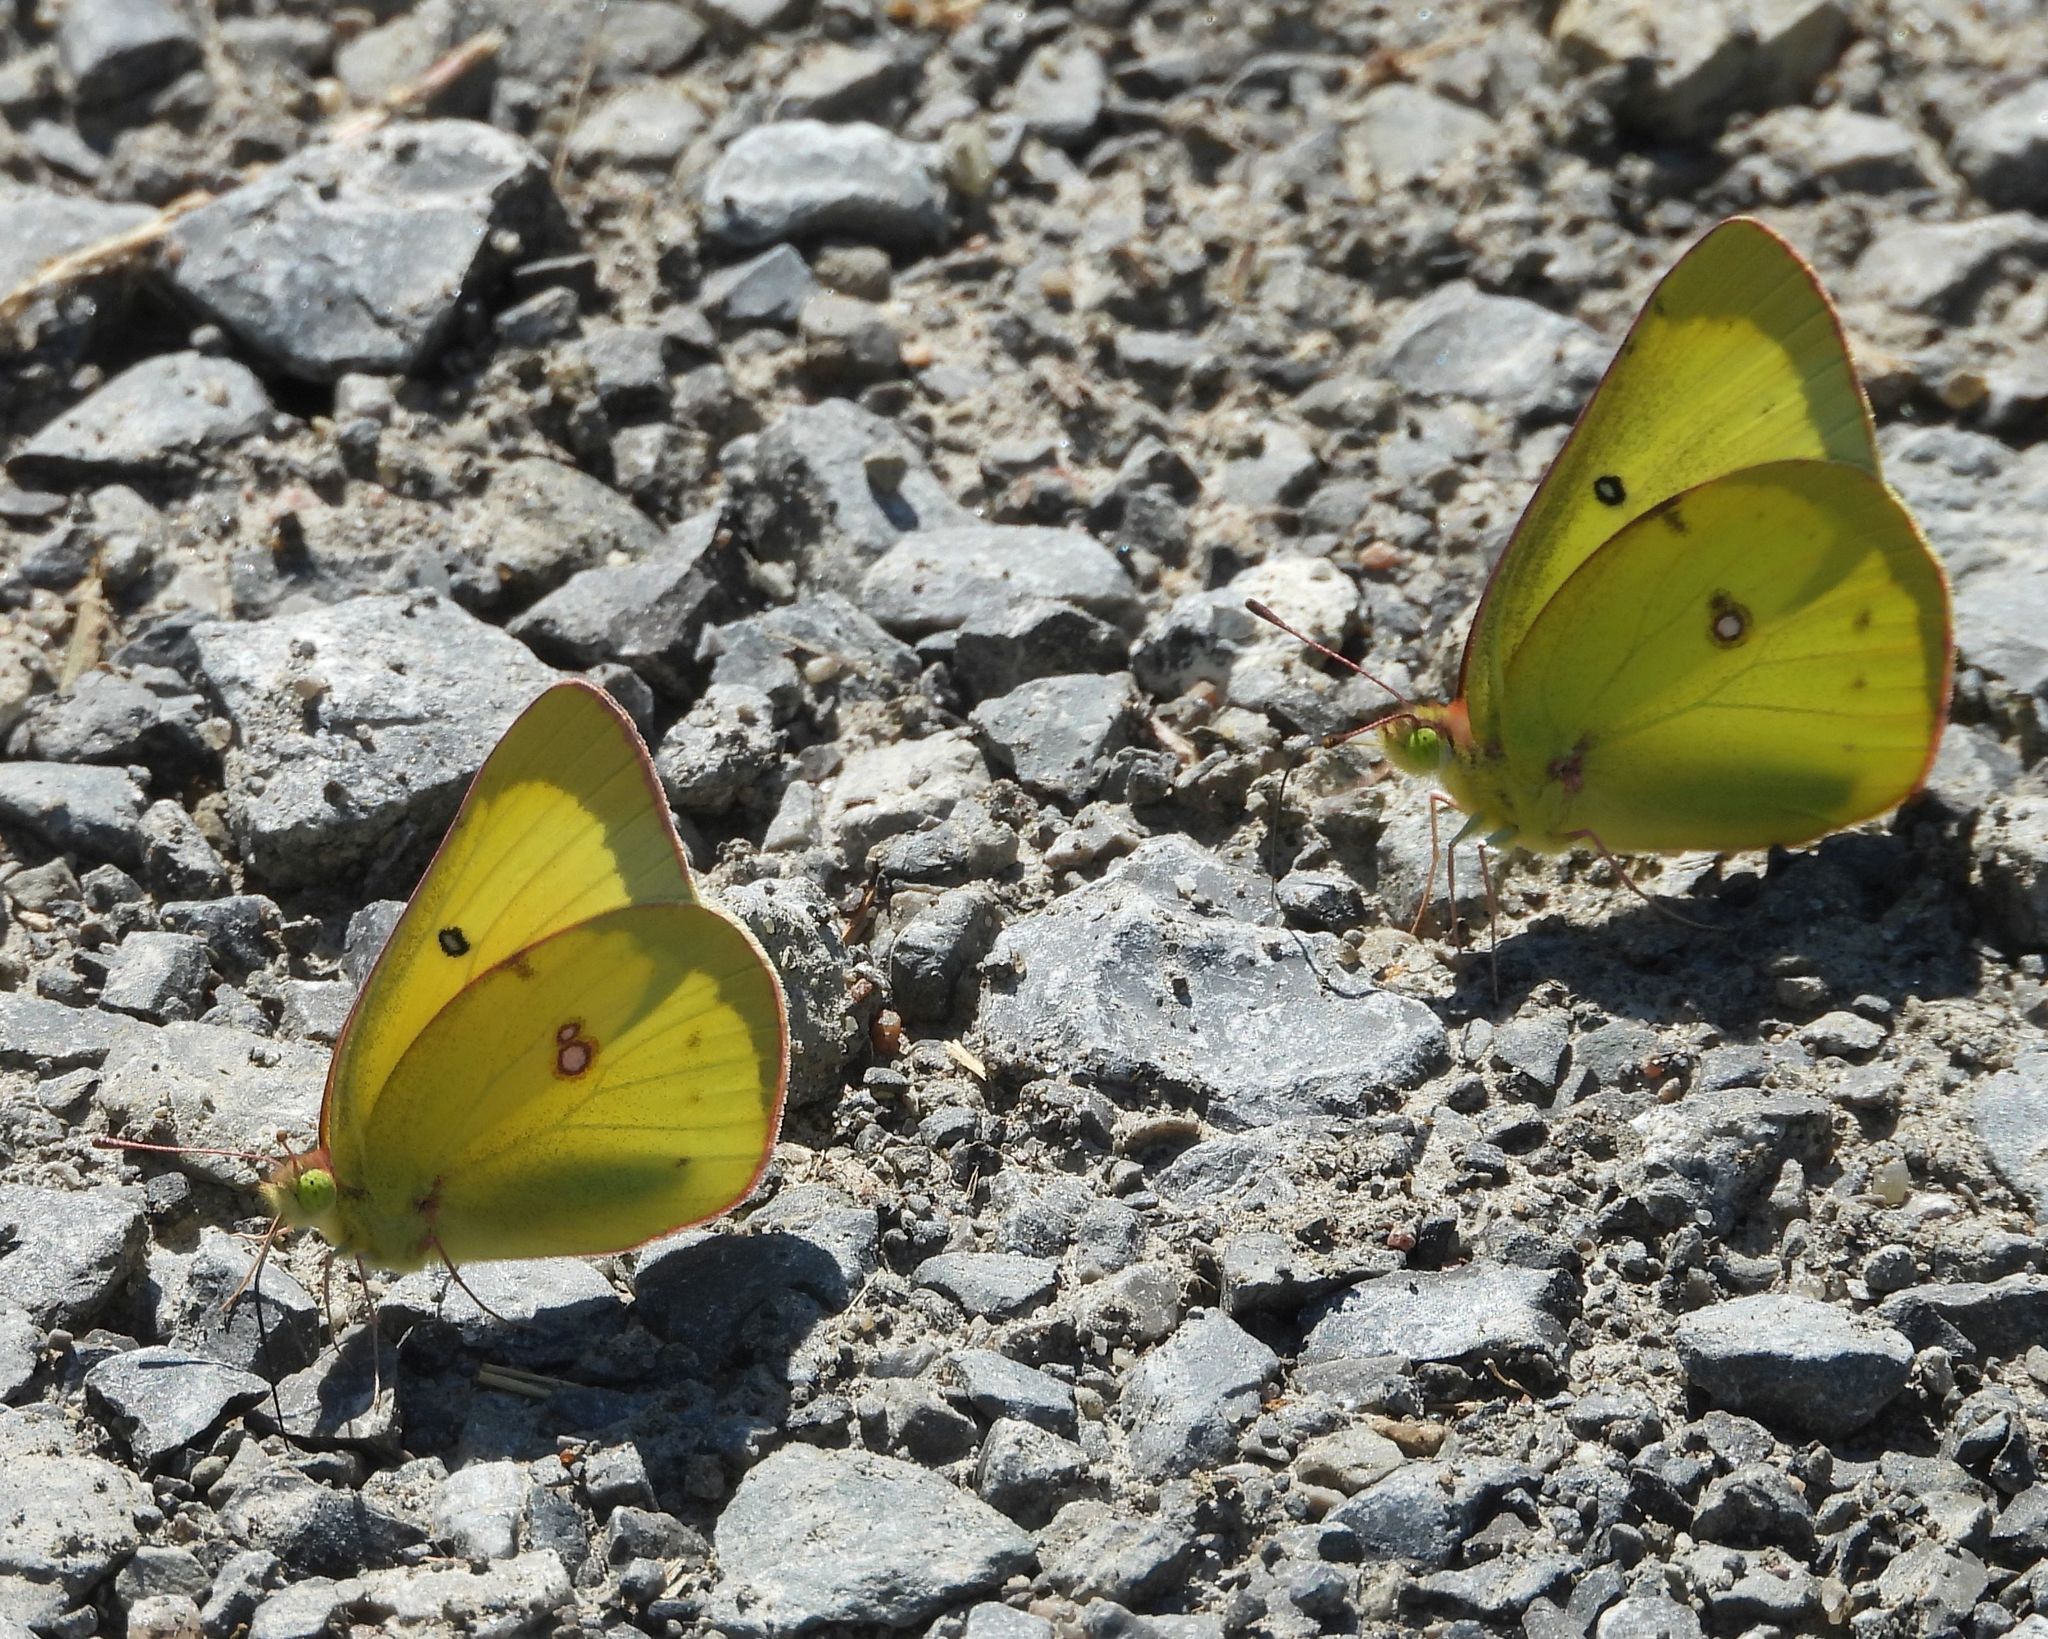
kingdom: Animalia
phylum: Arthropoda
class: Insecta
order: Lepidoptera
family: Pieridae
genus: Colias
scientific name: Colias philodice
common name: Clouded sulphur
